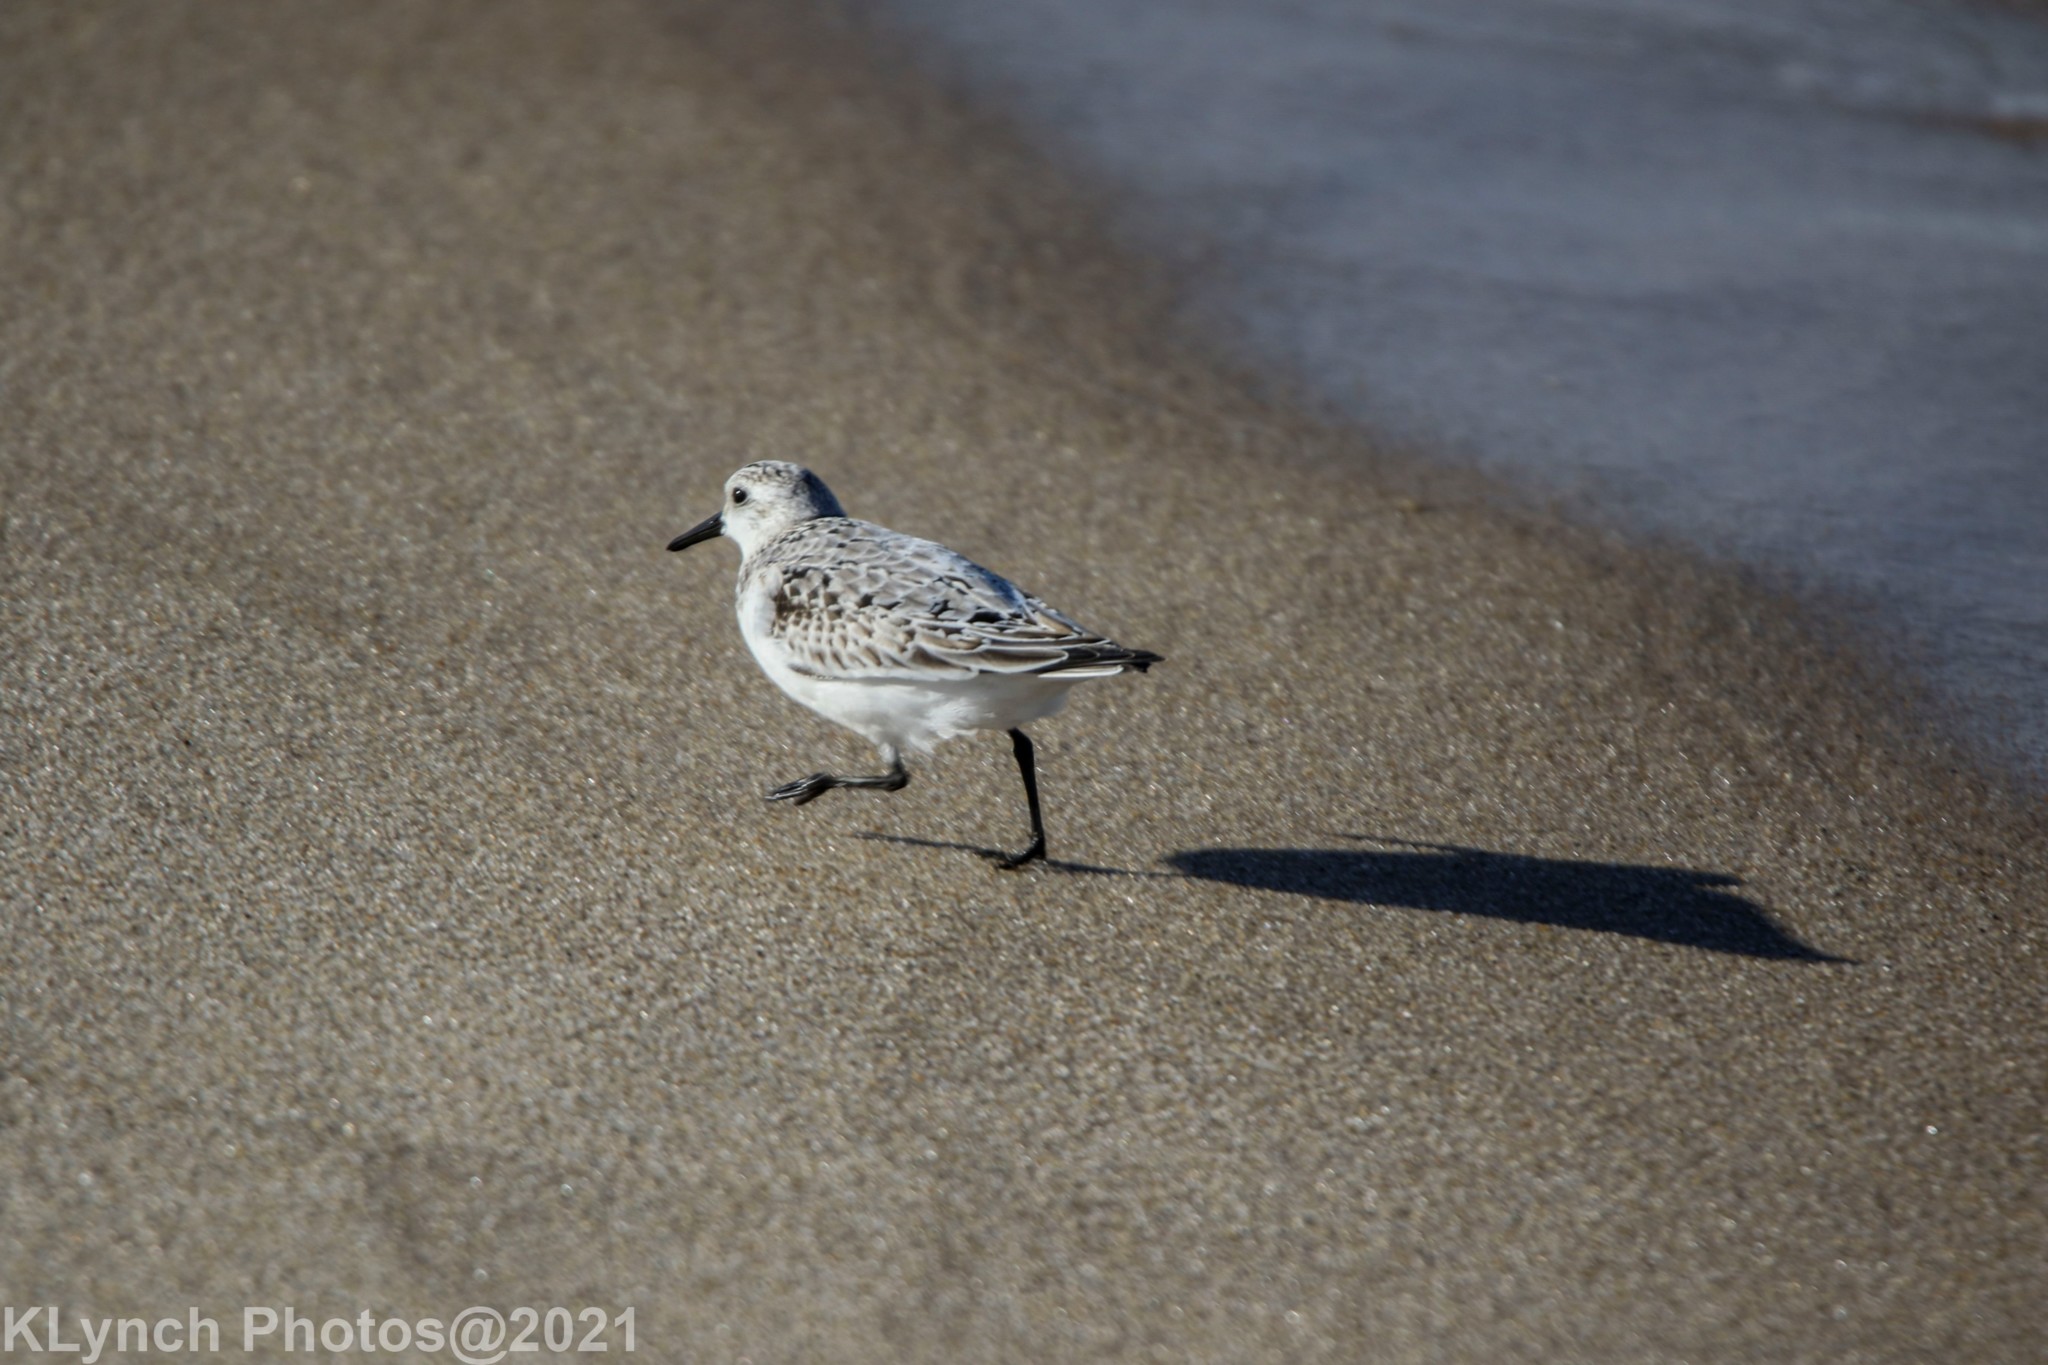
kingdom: Animalia
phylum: Chordata
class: Aves
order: Charadriiformes
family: Scolopacidae
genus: Calidris
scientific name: Calidris alba
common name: Sanderling
